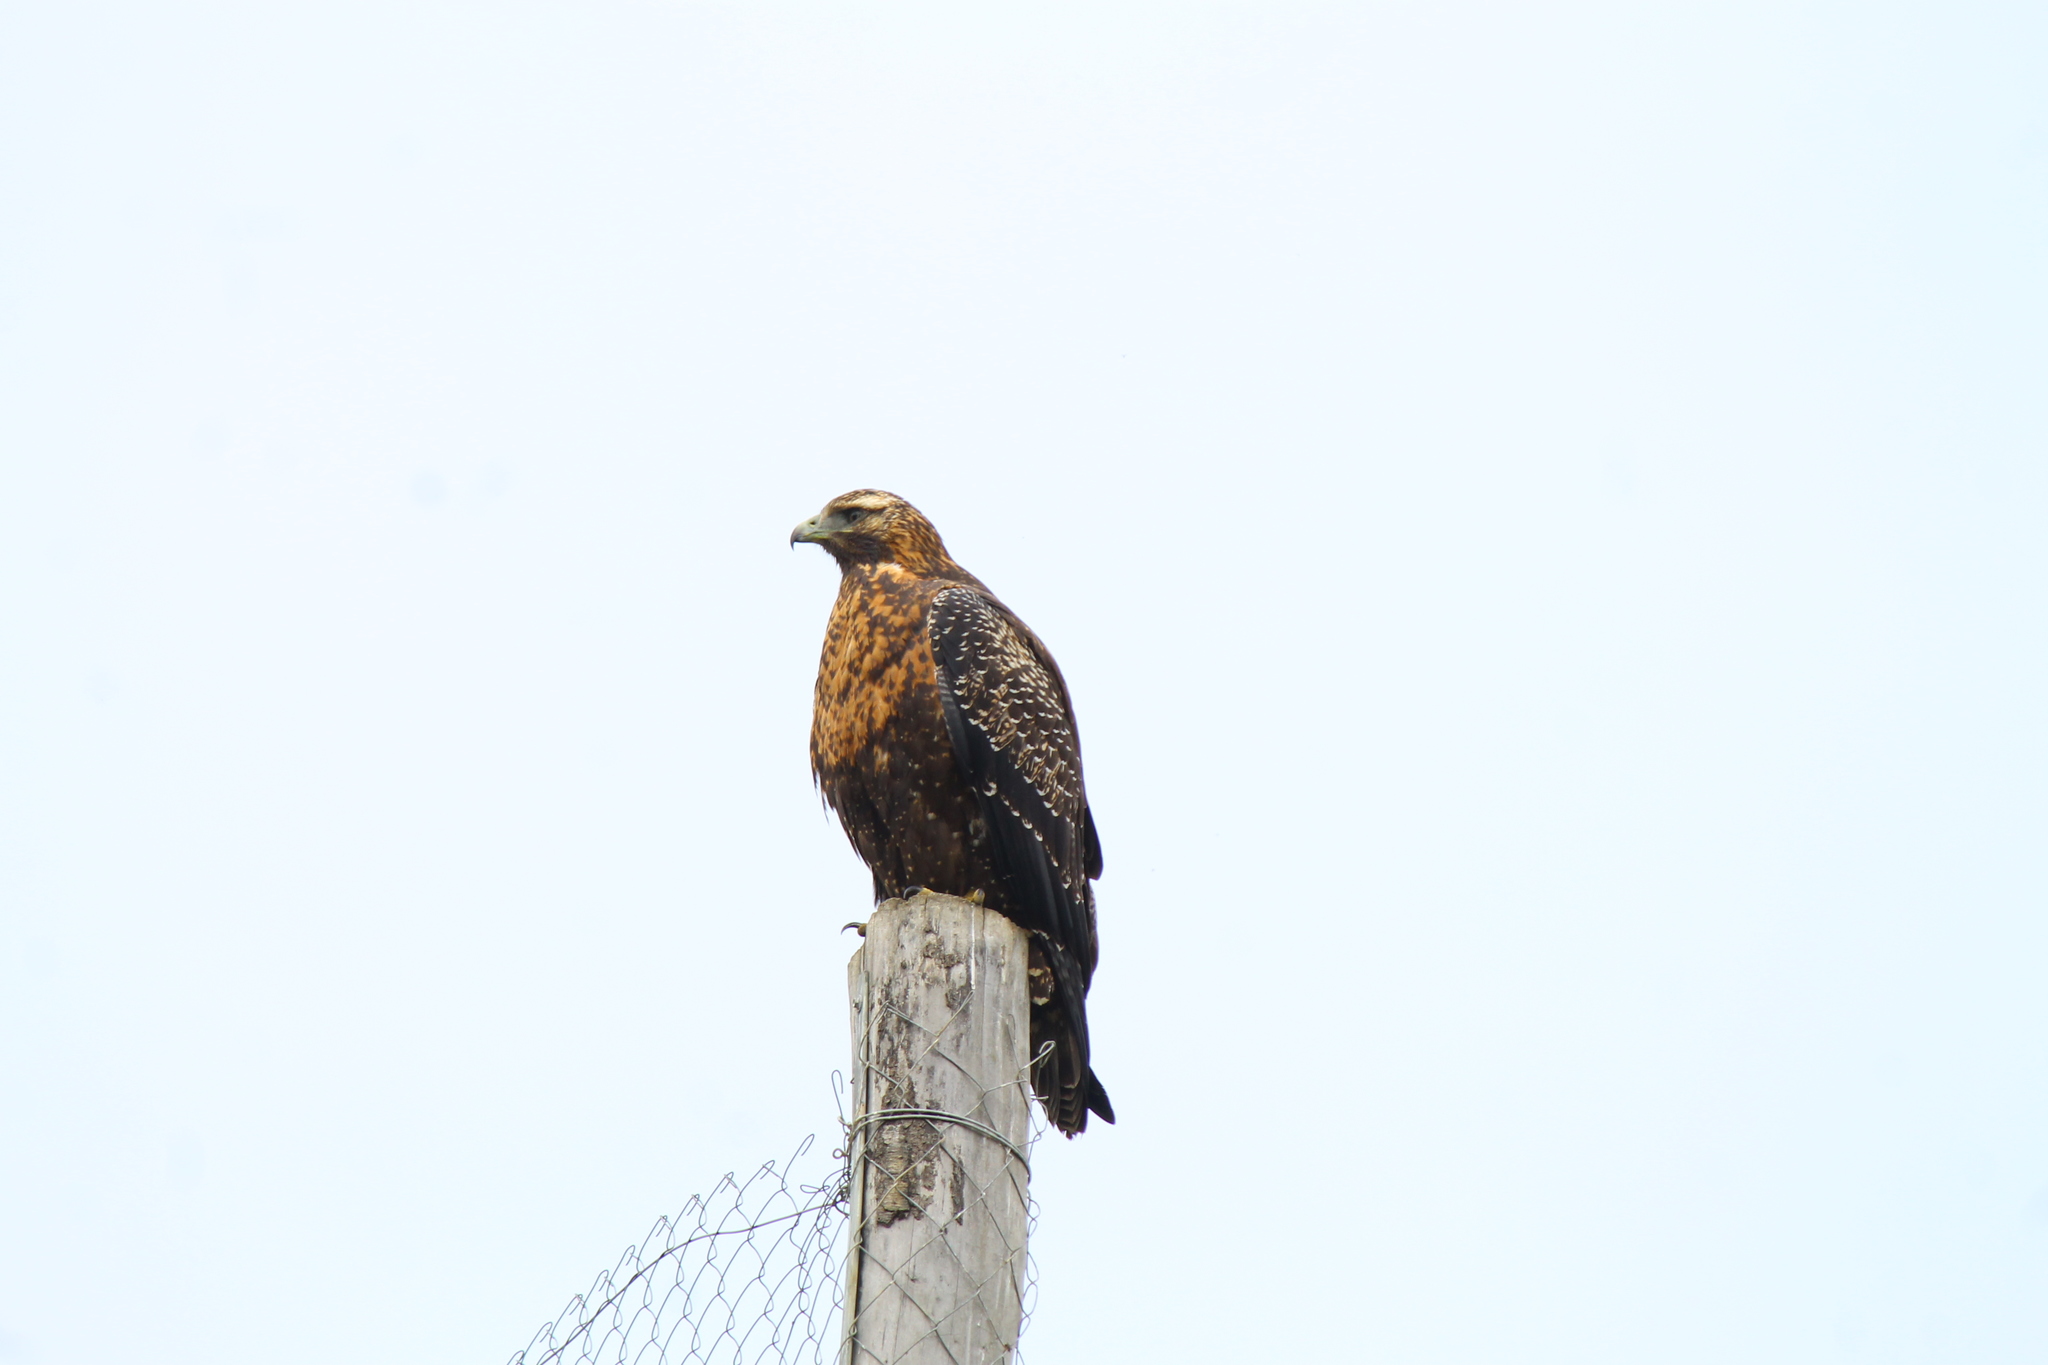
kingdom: Animalia
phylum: Chordata
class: Aves
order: Accipitriformes
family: Accipitridae
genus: Geranoaetus
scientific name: Geranoaetus melanoleucus
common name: Black-chested buzzard-eagle
